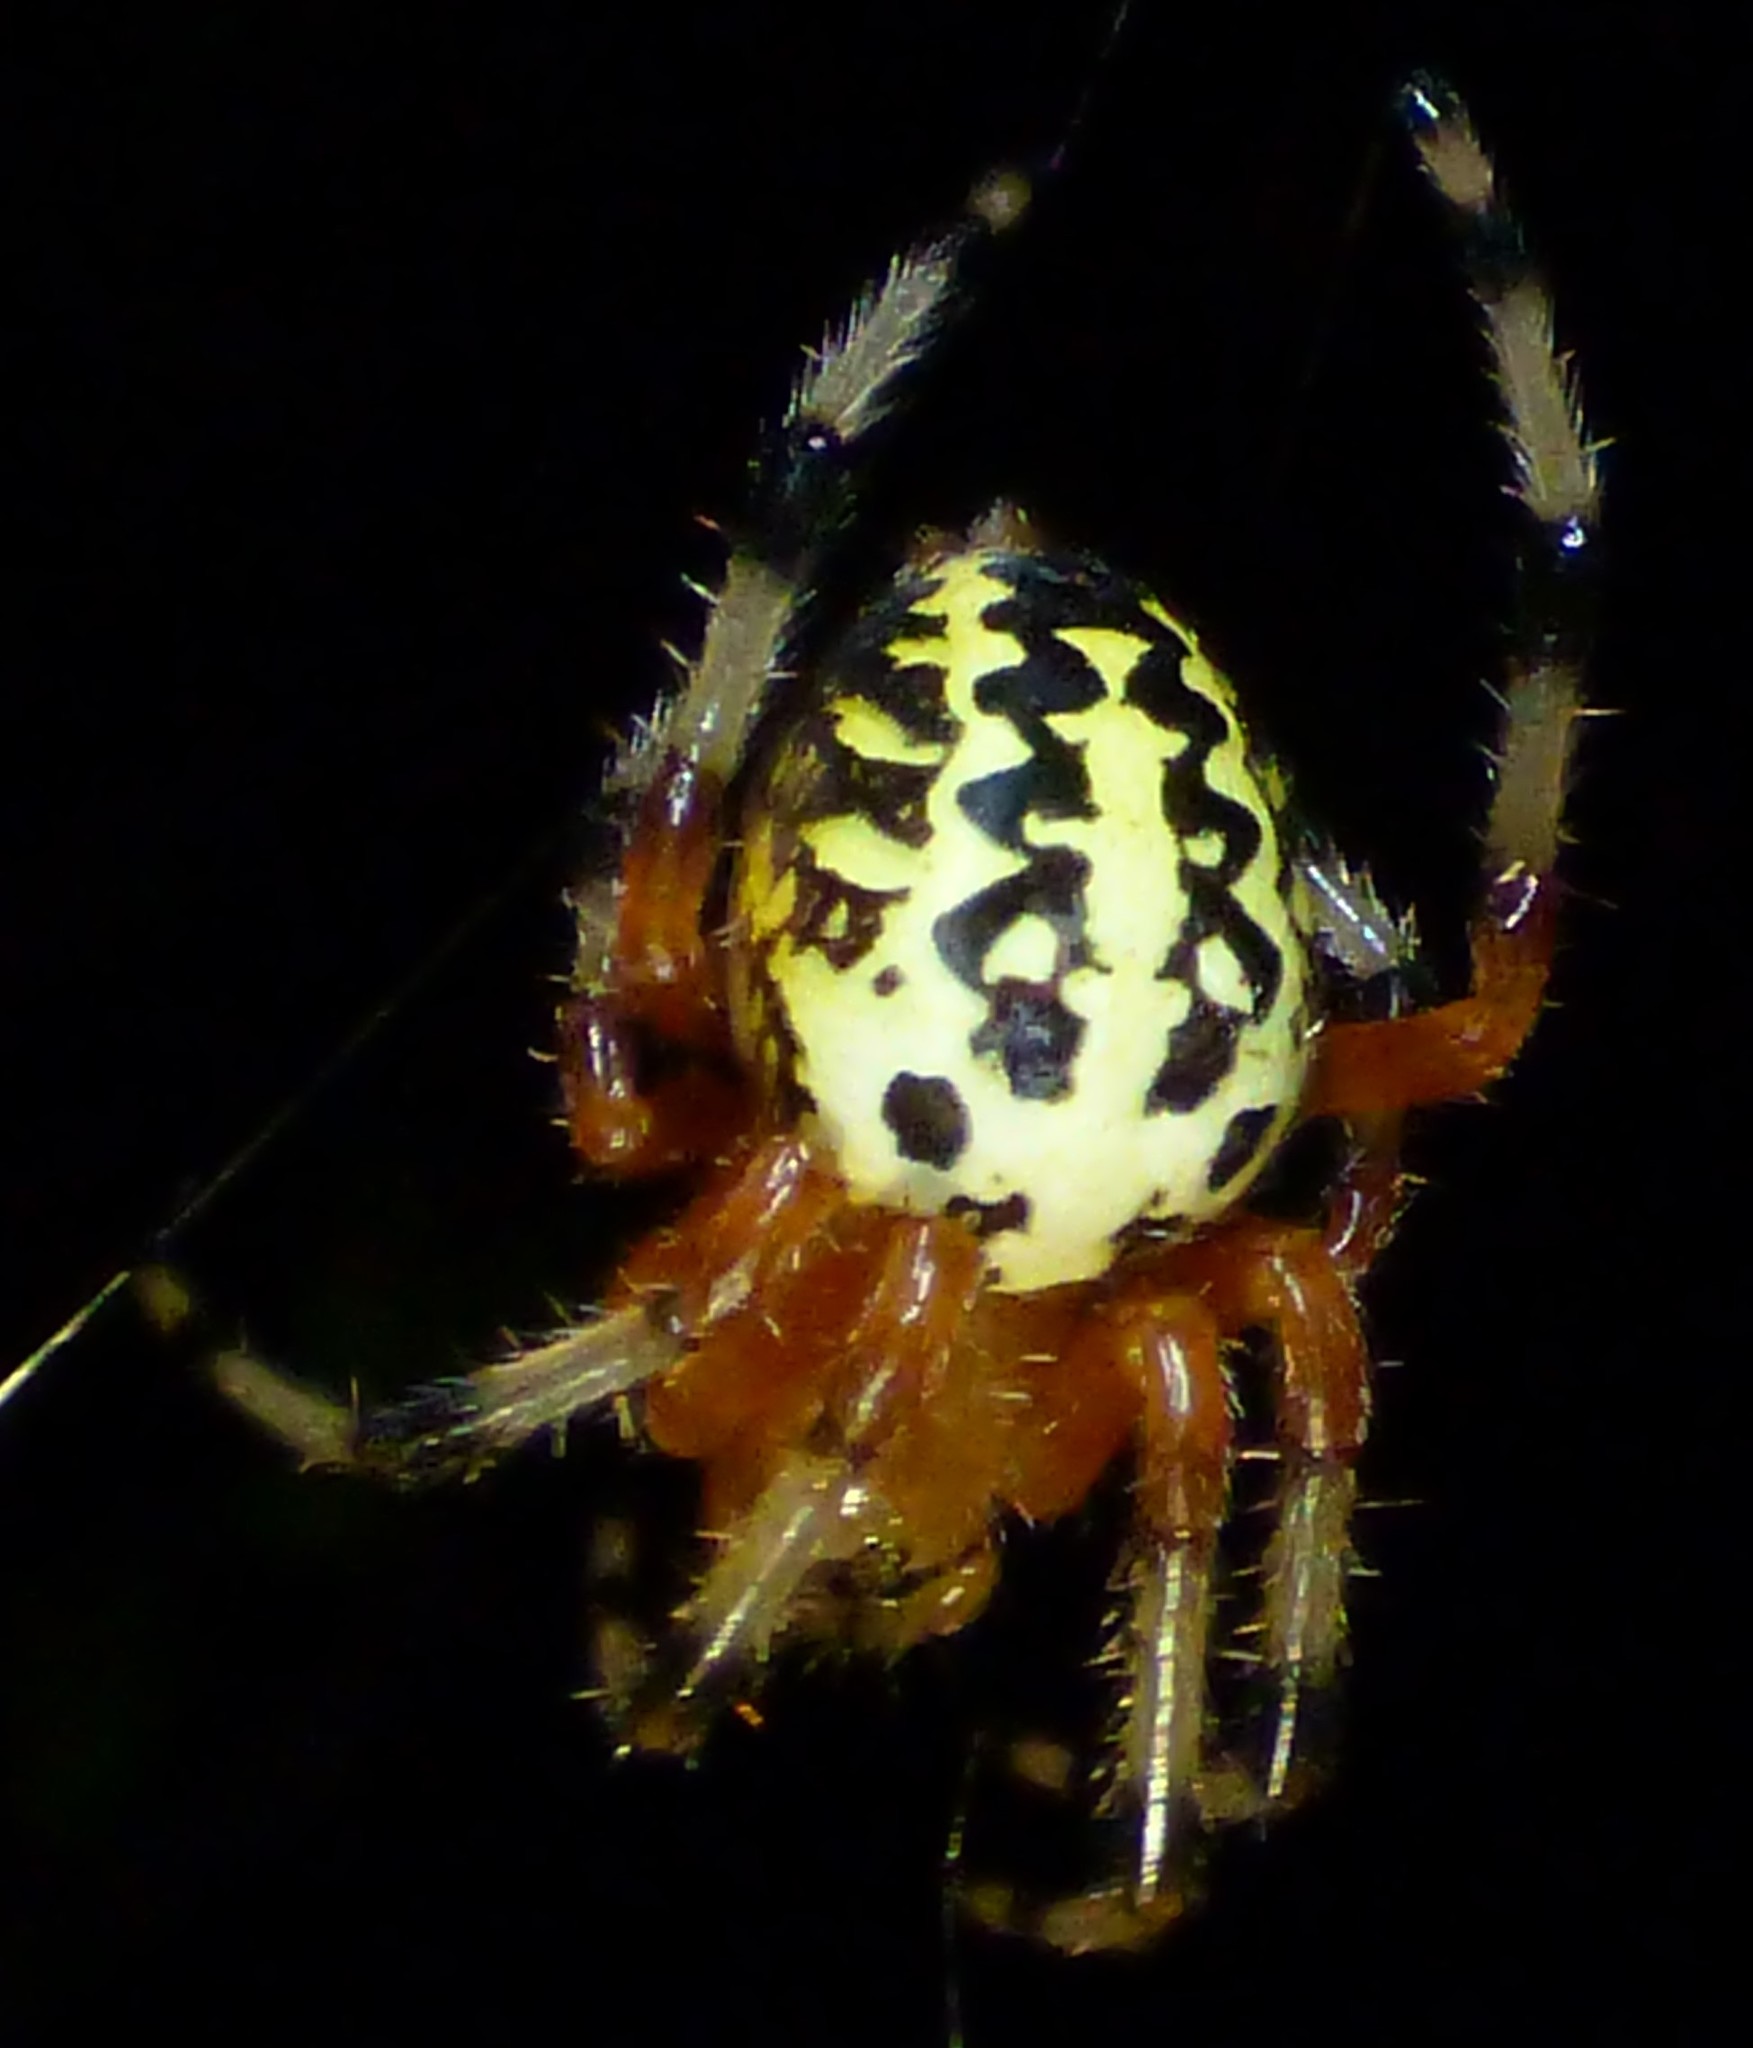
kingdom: Animalia
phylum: Arthropoda
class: Arachnida
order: Araneae
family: Araneidae
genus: Araneus
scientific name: Araneus marmoreus
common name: Marbled orbweaver
